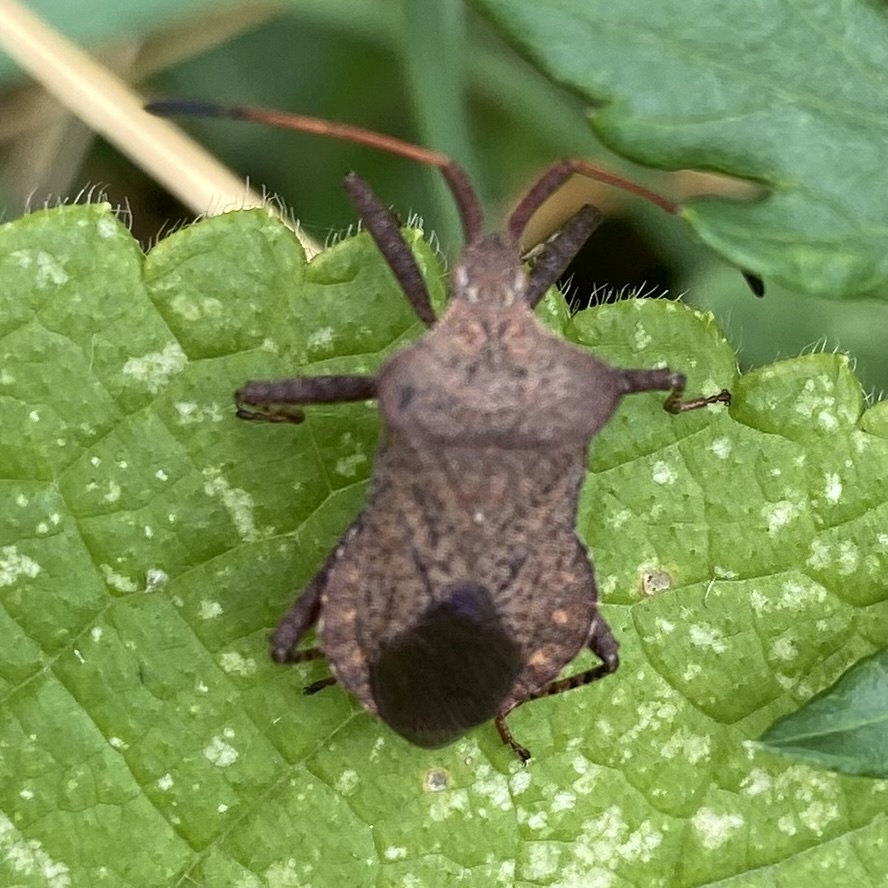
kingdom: Animalia
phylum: Arthropoda
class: Insecta
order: Hemiptera
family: Coreidae
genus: Coreus
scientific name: Coreus marginatus
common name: Dock bug
